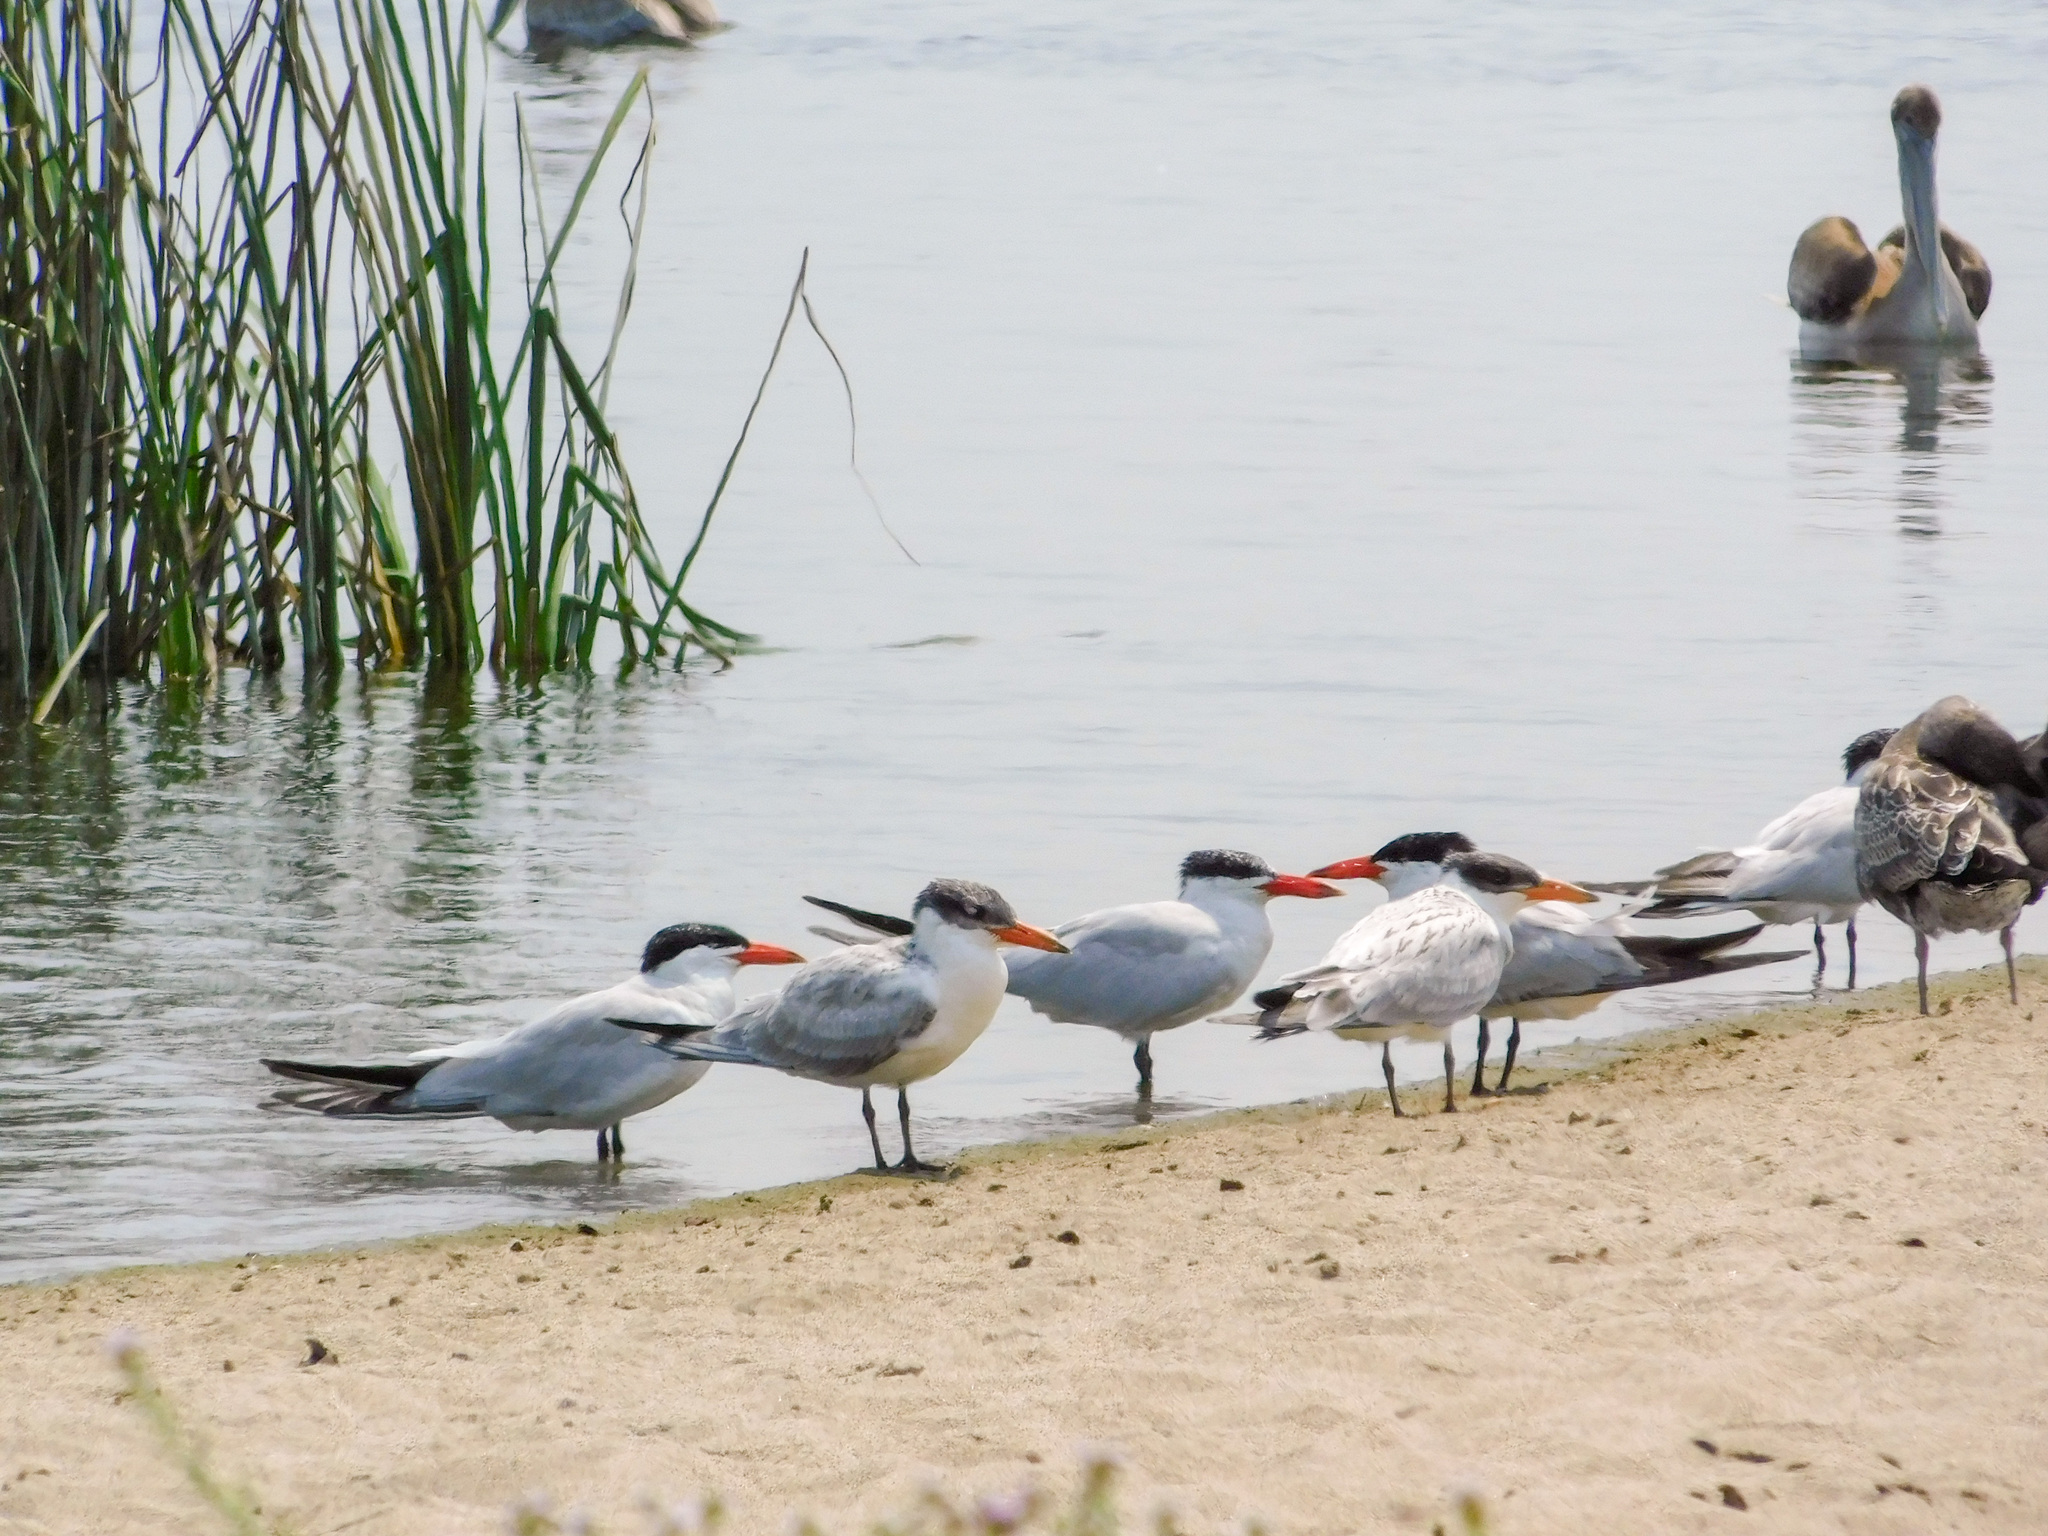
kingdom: Animalia
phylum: Chordata
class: Aves
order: Charadriiformes
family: Laridae
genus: Hydroprogne
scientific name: Hydroprogne caspia
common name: Caspian tern
